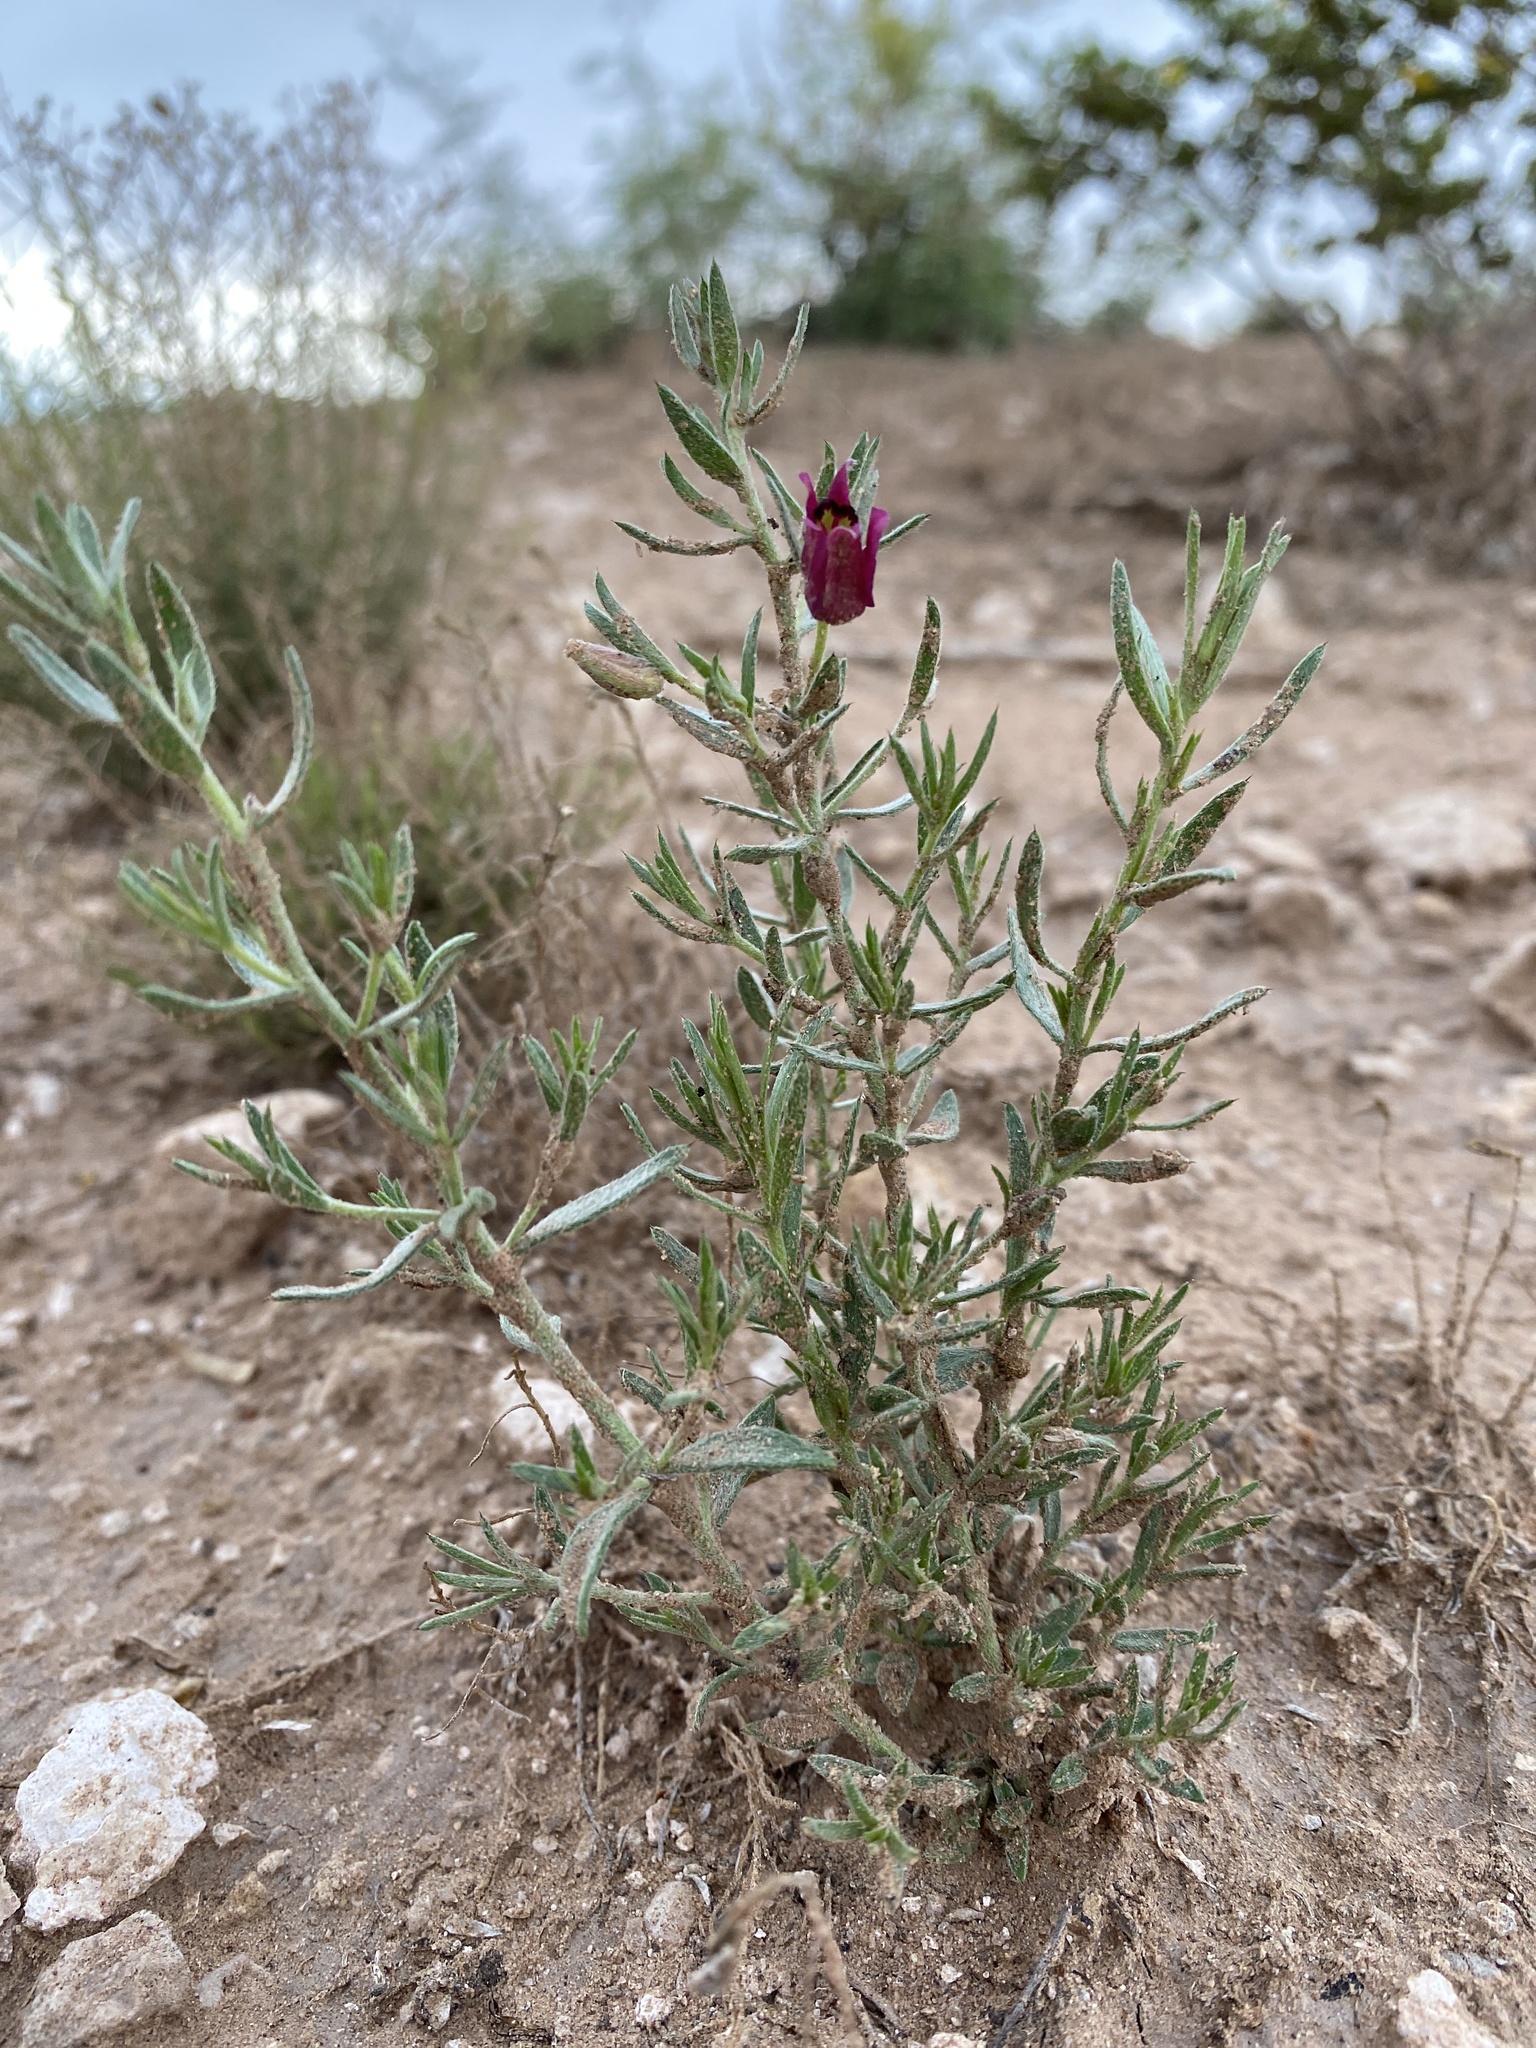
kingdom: Plantae
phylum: Tracheophyta
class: Magnoliopsida
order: Zygophyllales
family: Krameriaceae
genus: Krameria
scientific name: Krameria lanceolata
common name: Ratany
